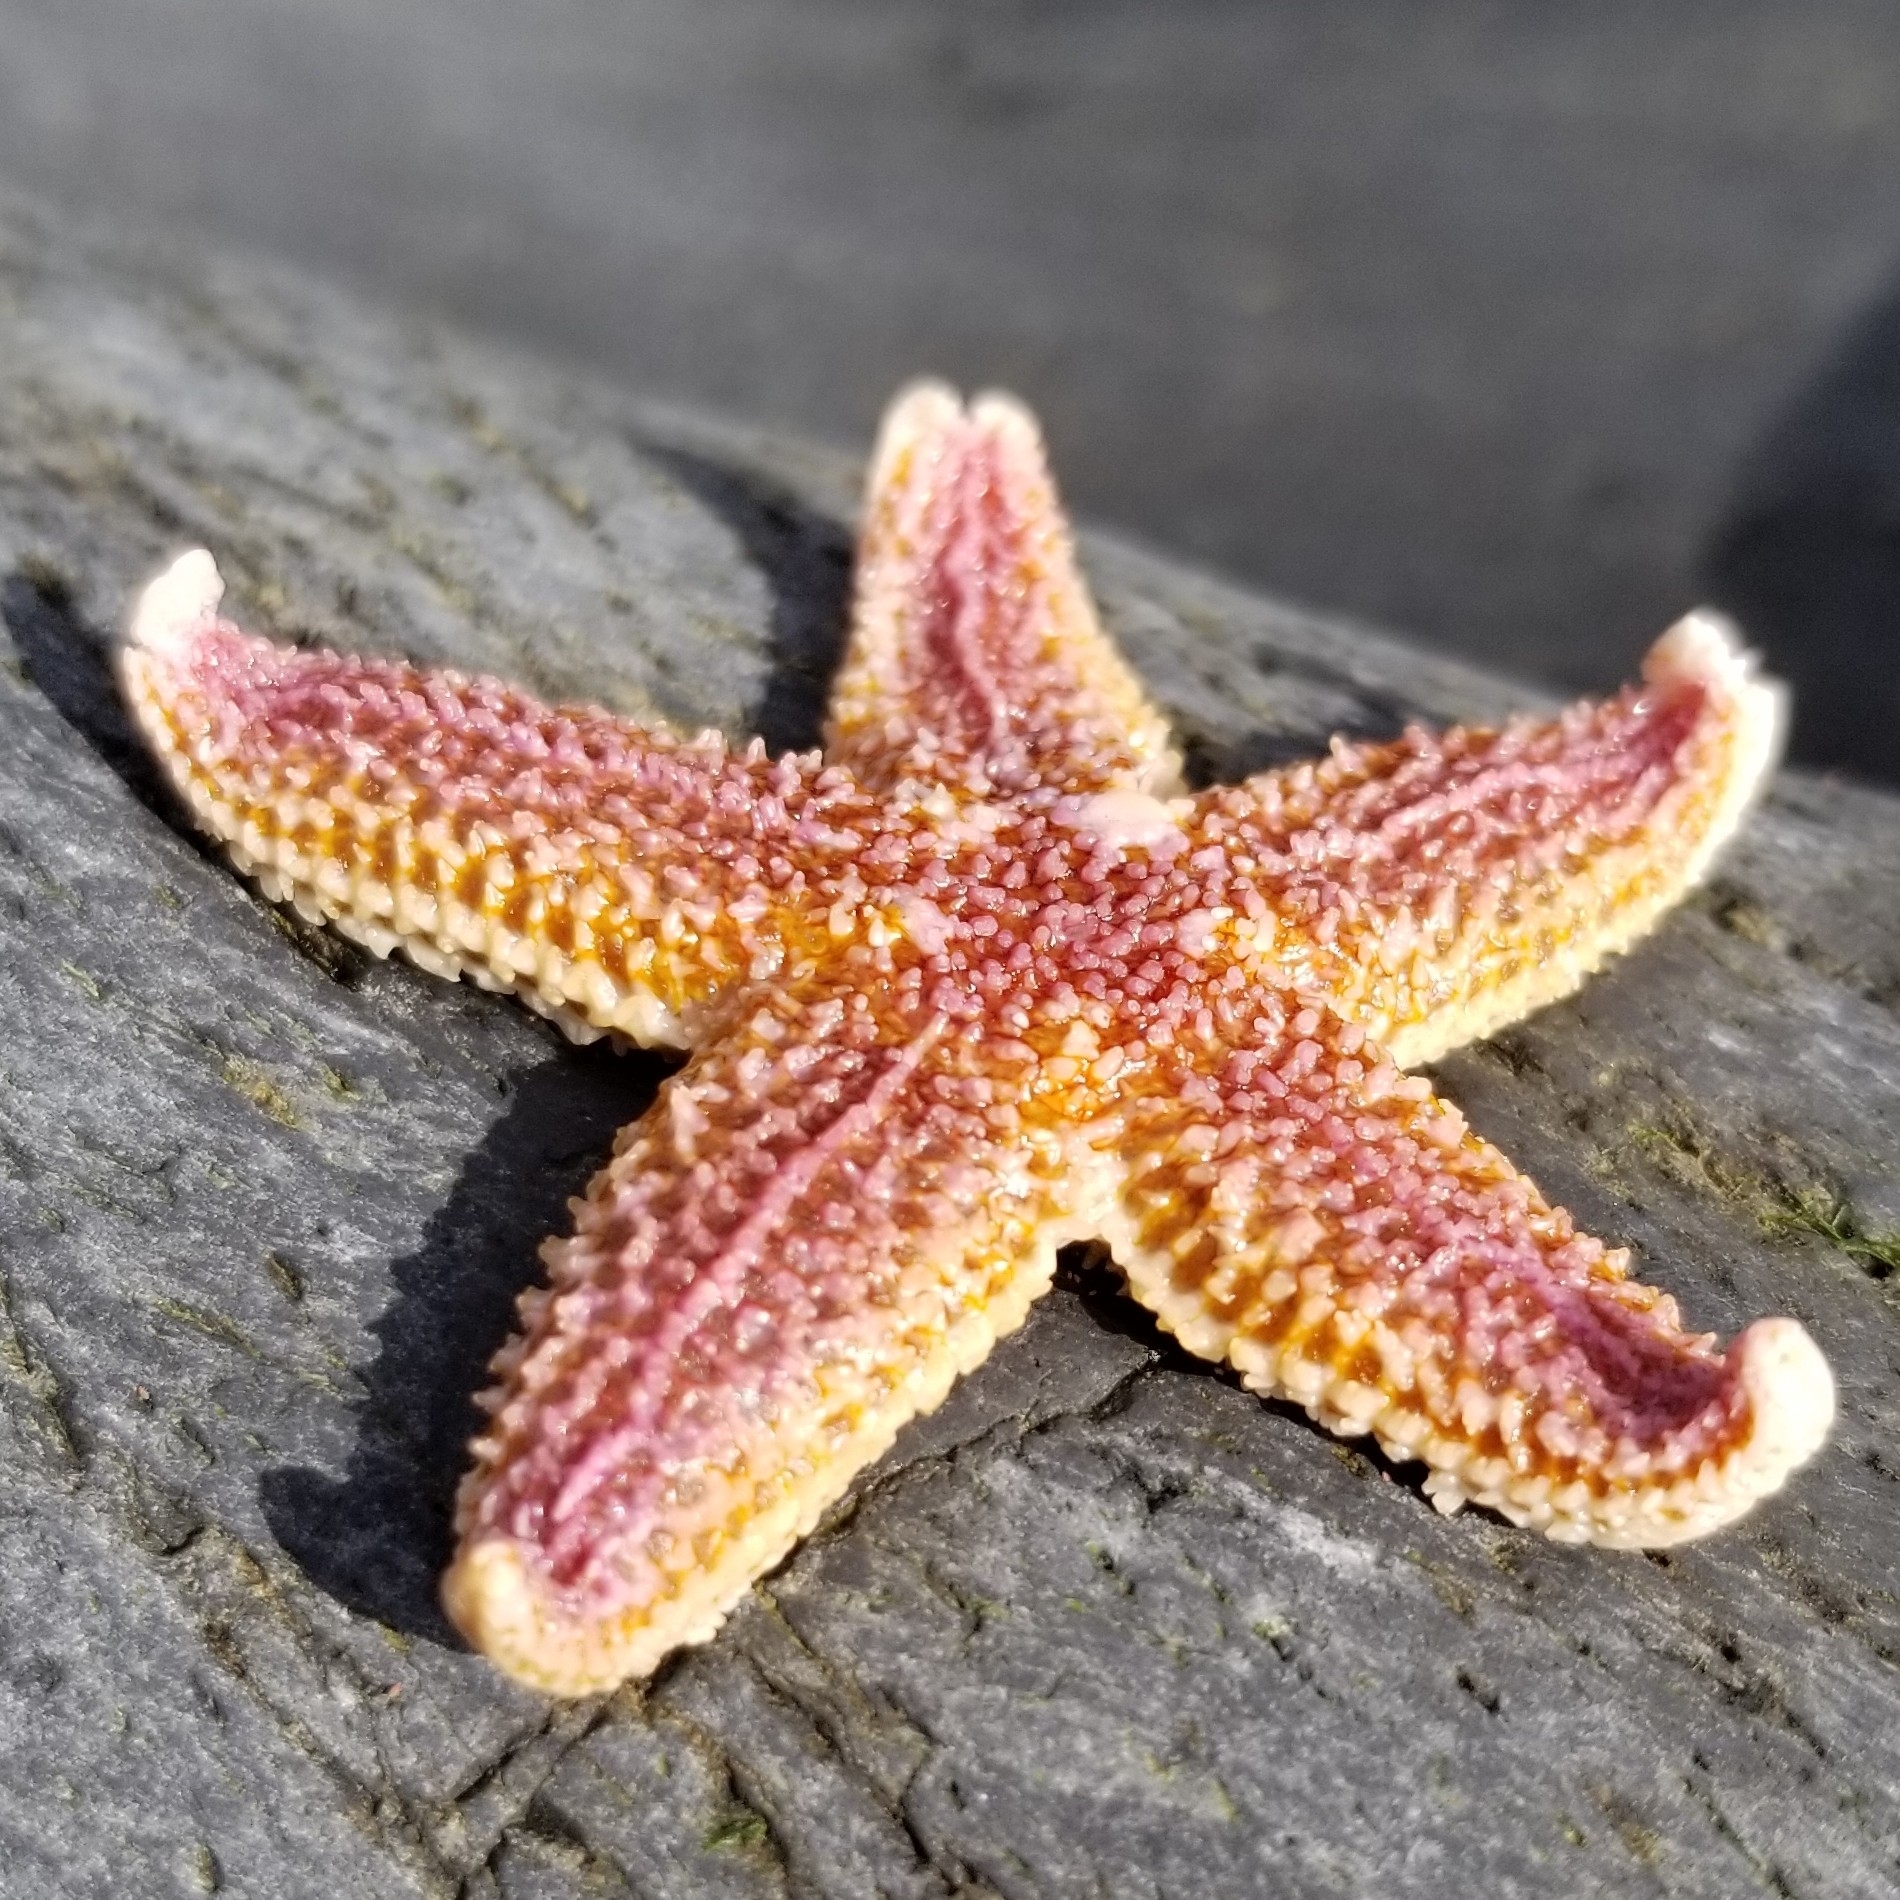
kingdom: Animalia
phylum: Echinodermata
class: Asteroidea
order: Forcipulatida
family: Asteriidae
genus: Asterias
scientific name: Asterias rubens
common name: Common starfish
